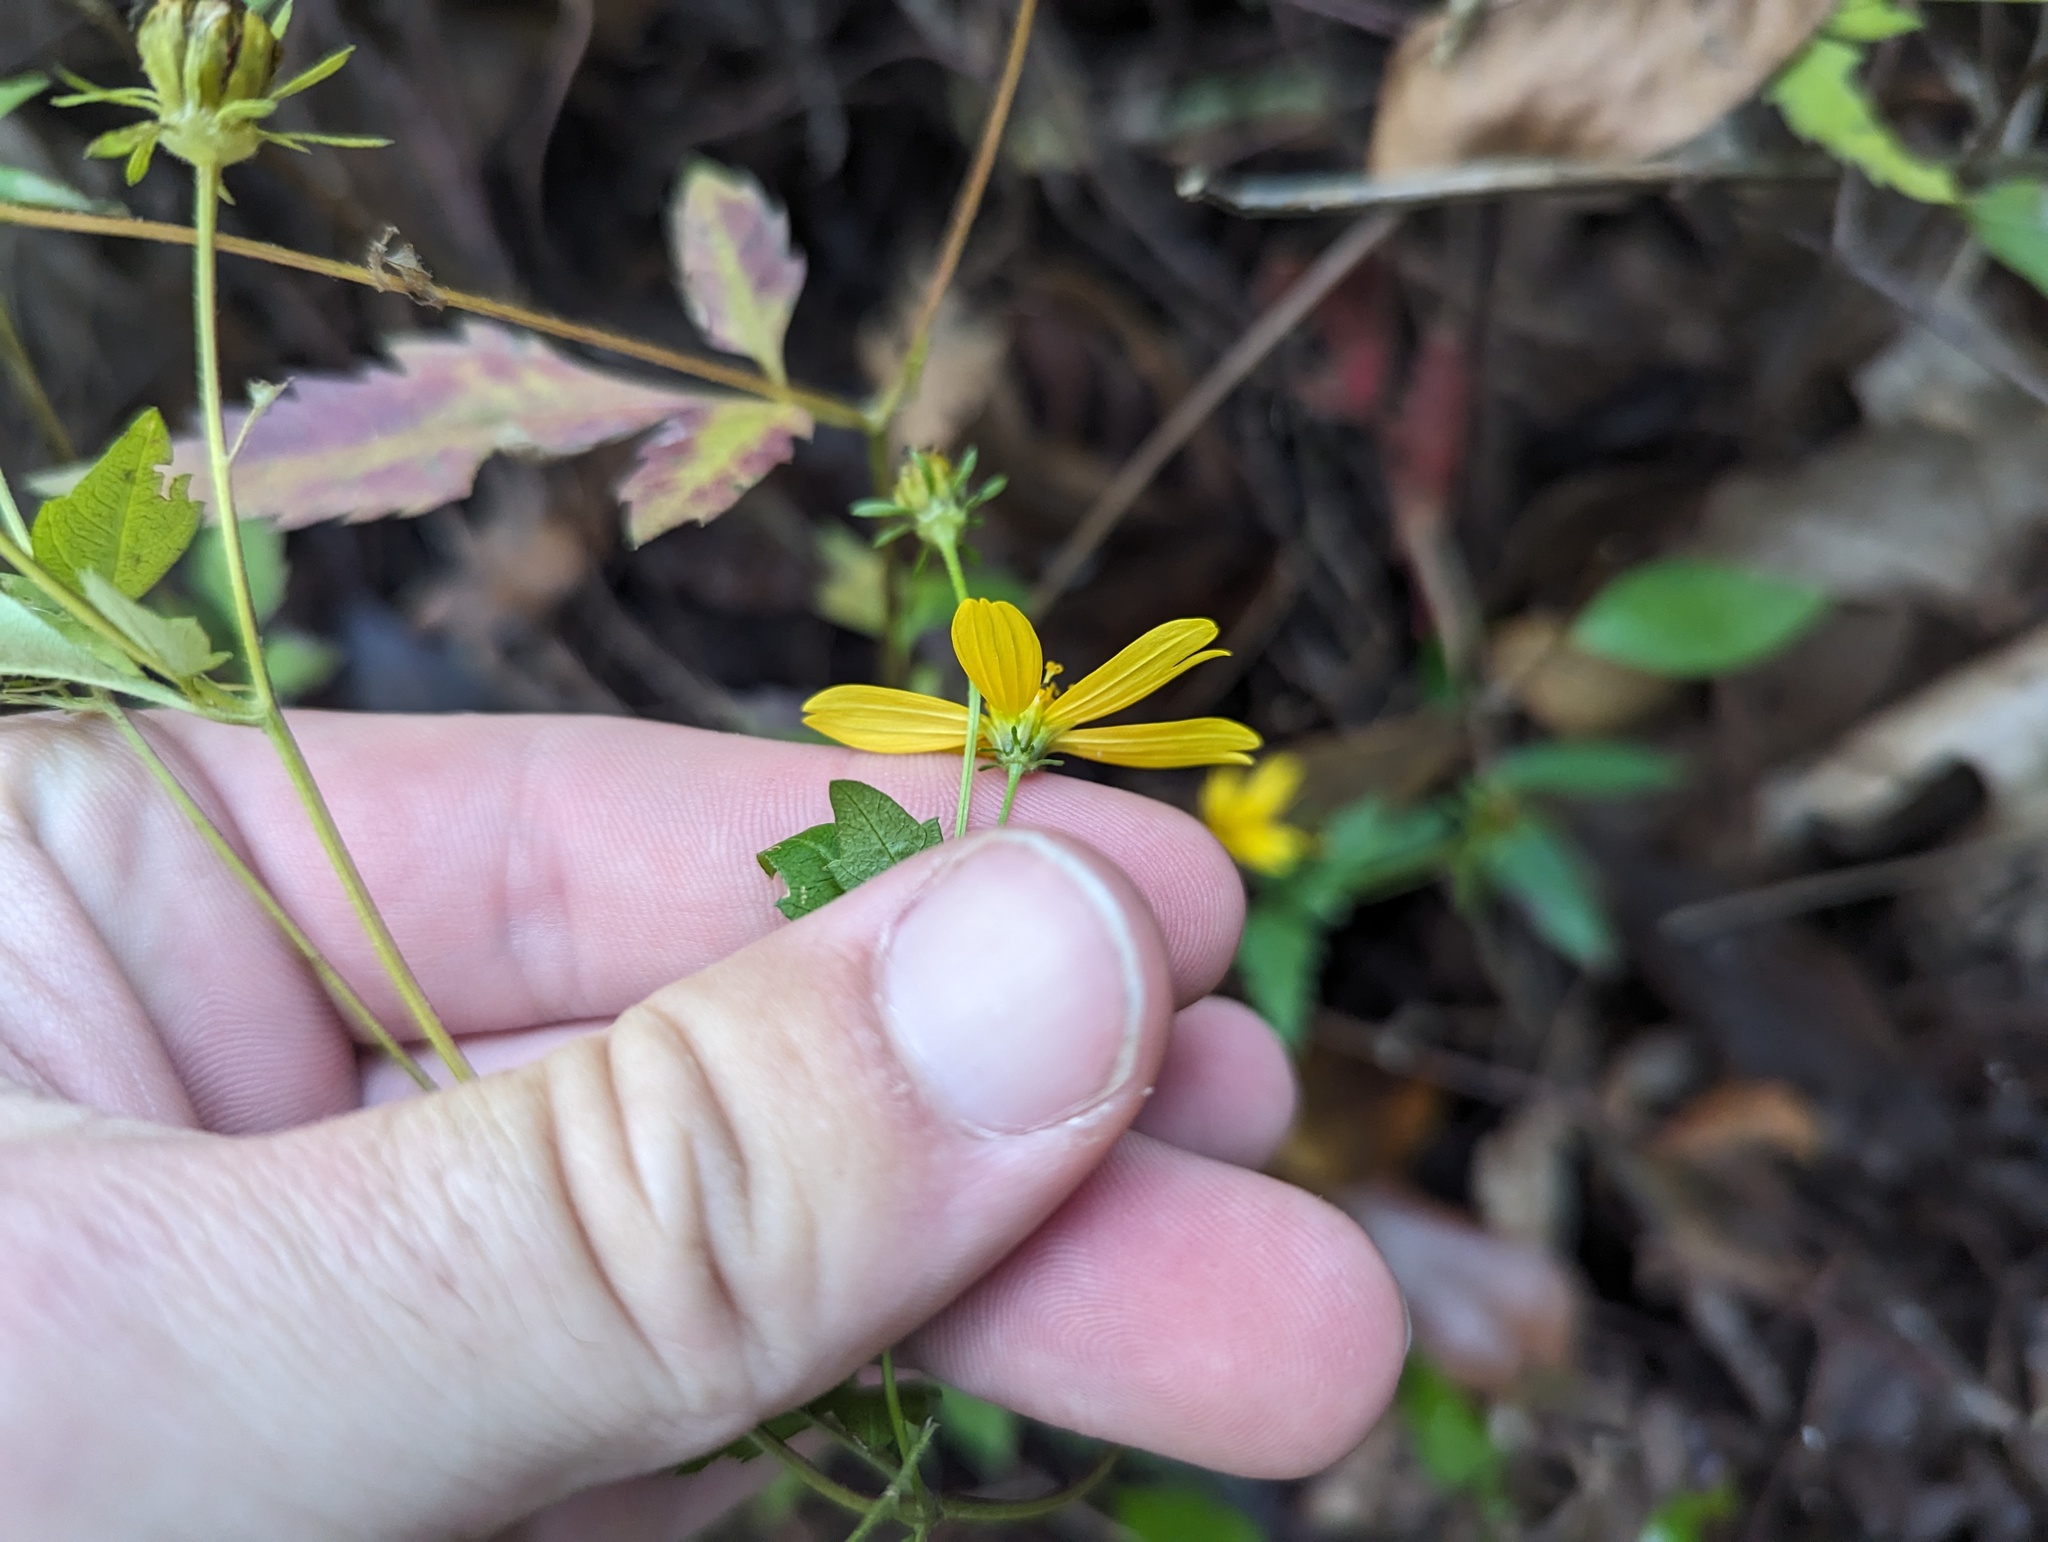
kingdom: Plantae
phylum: Tracheophyta
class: Magnoliopsida
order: Asterales
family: Asteraceae
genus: Bidens
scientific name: Bidens aristosa
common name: Western tickseed
